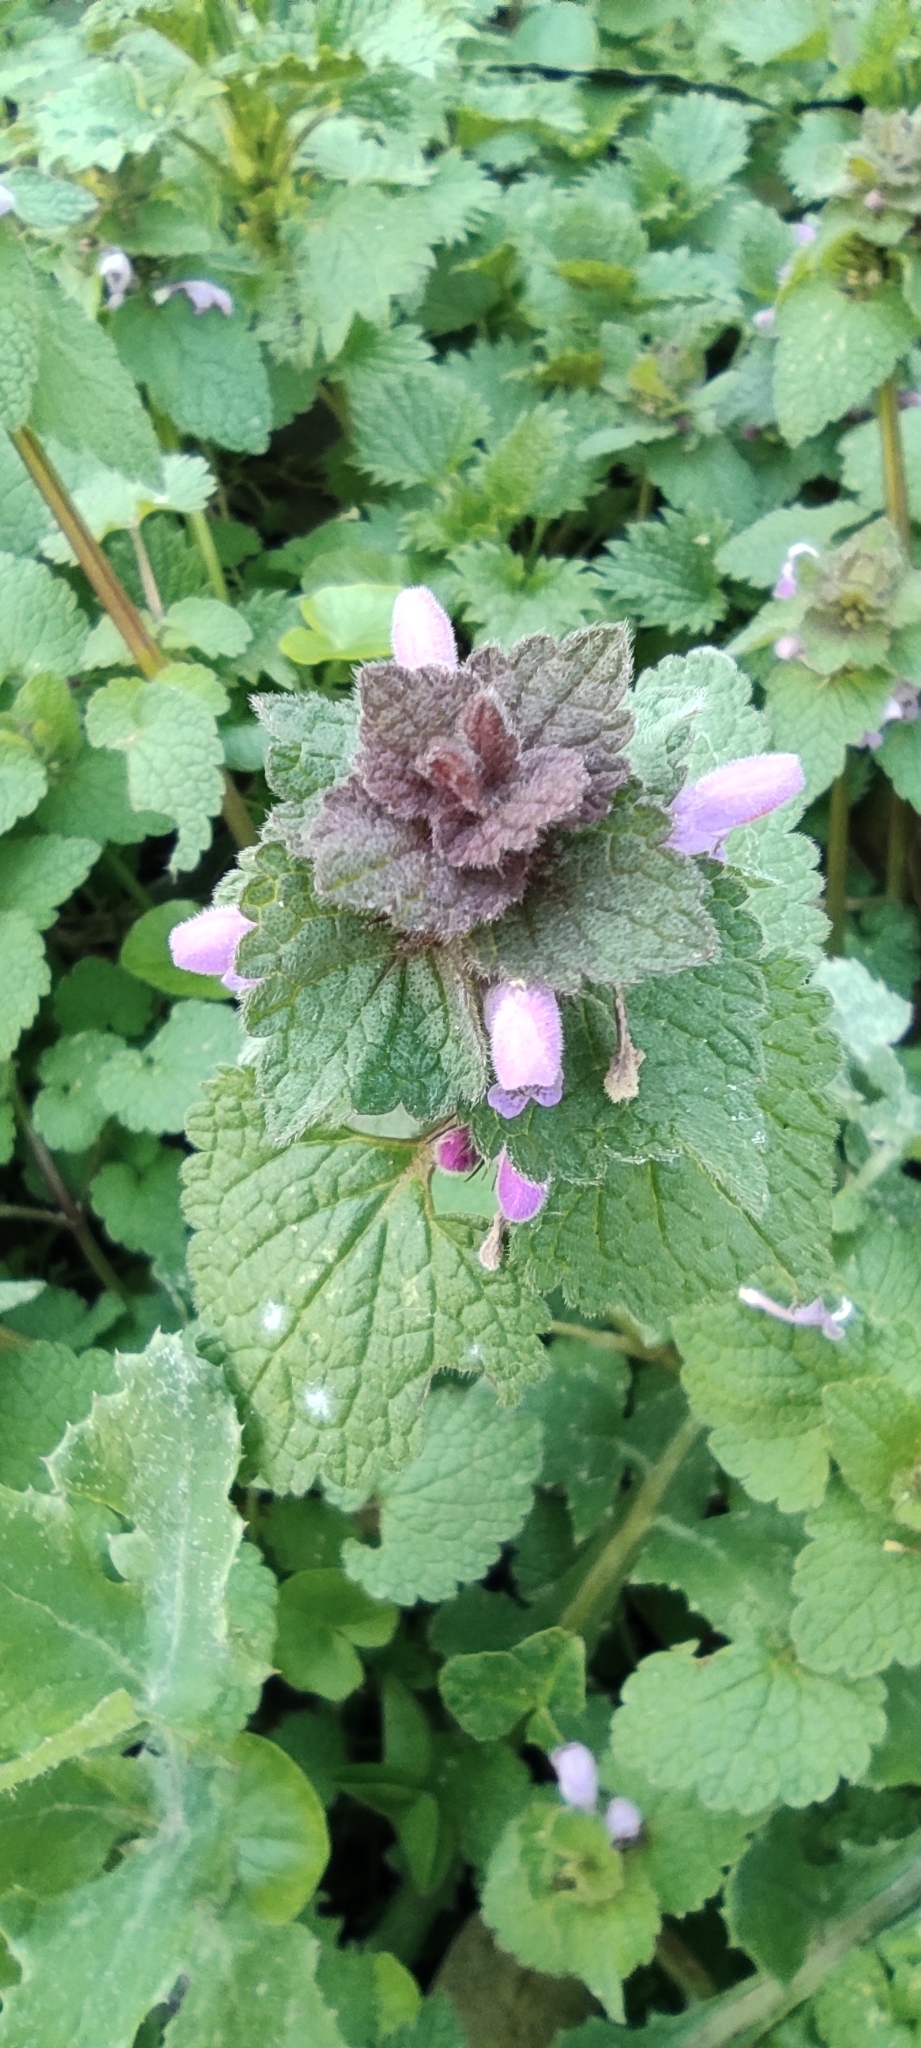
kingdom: Plantae
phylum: Tracheophyta
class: Magnoliopsida
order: Lamiales
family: Lamiaceae
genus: Lamium
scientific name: Lamium purpureum
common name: Red dead-nettle
